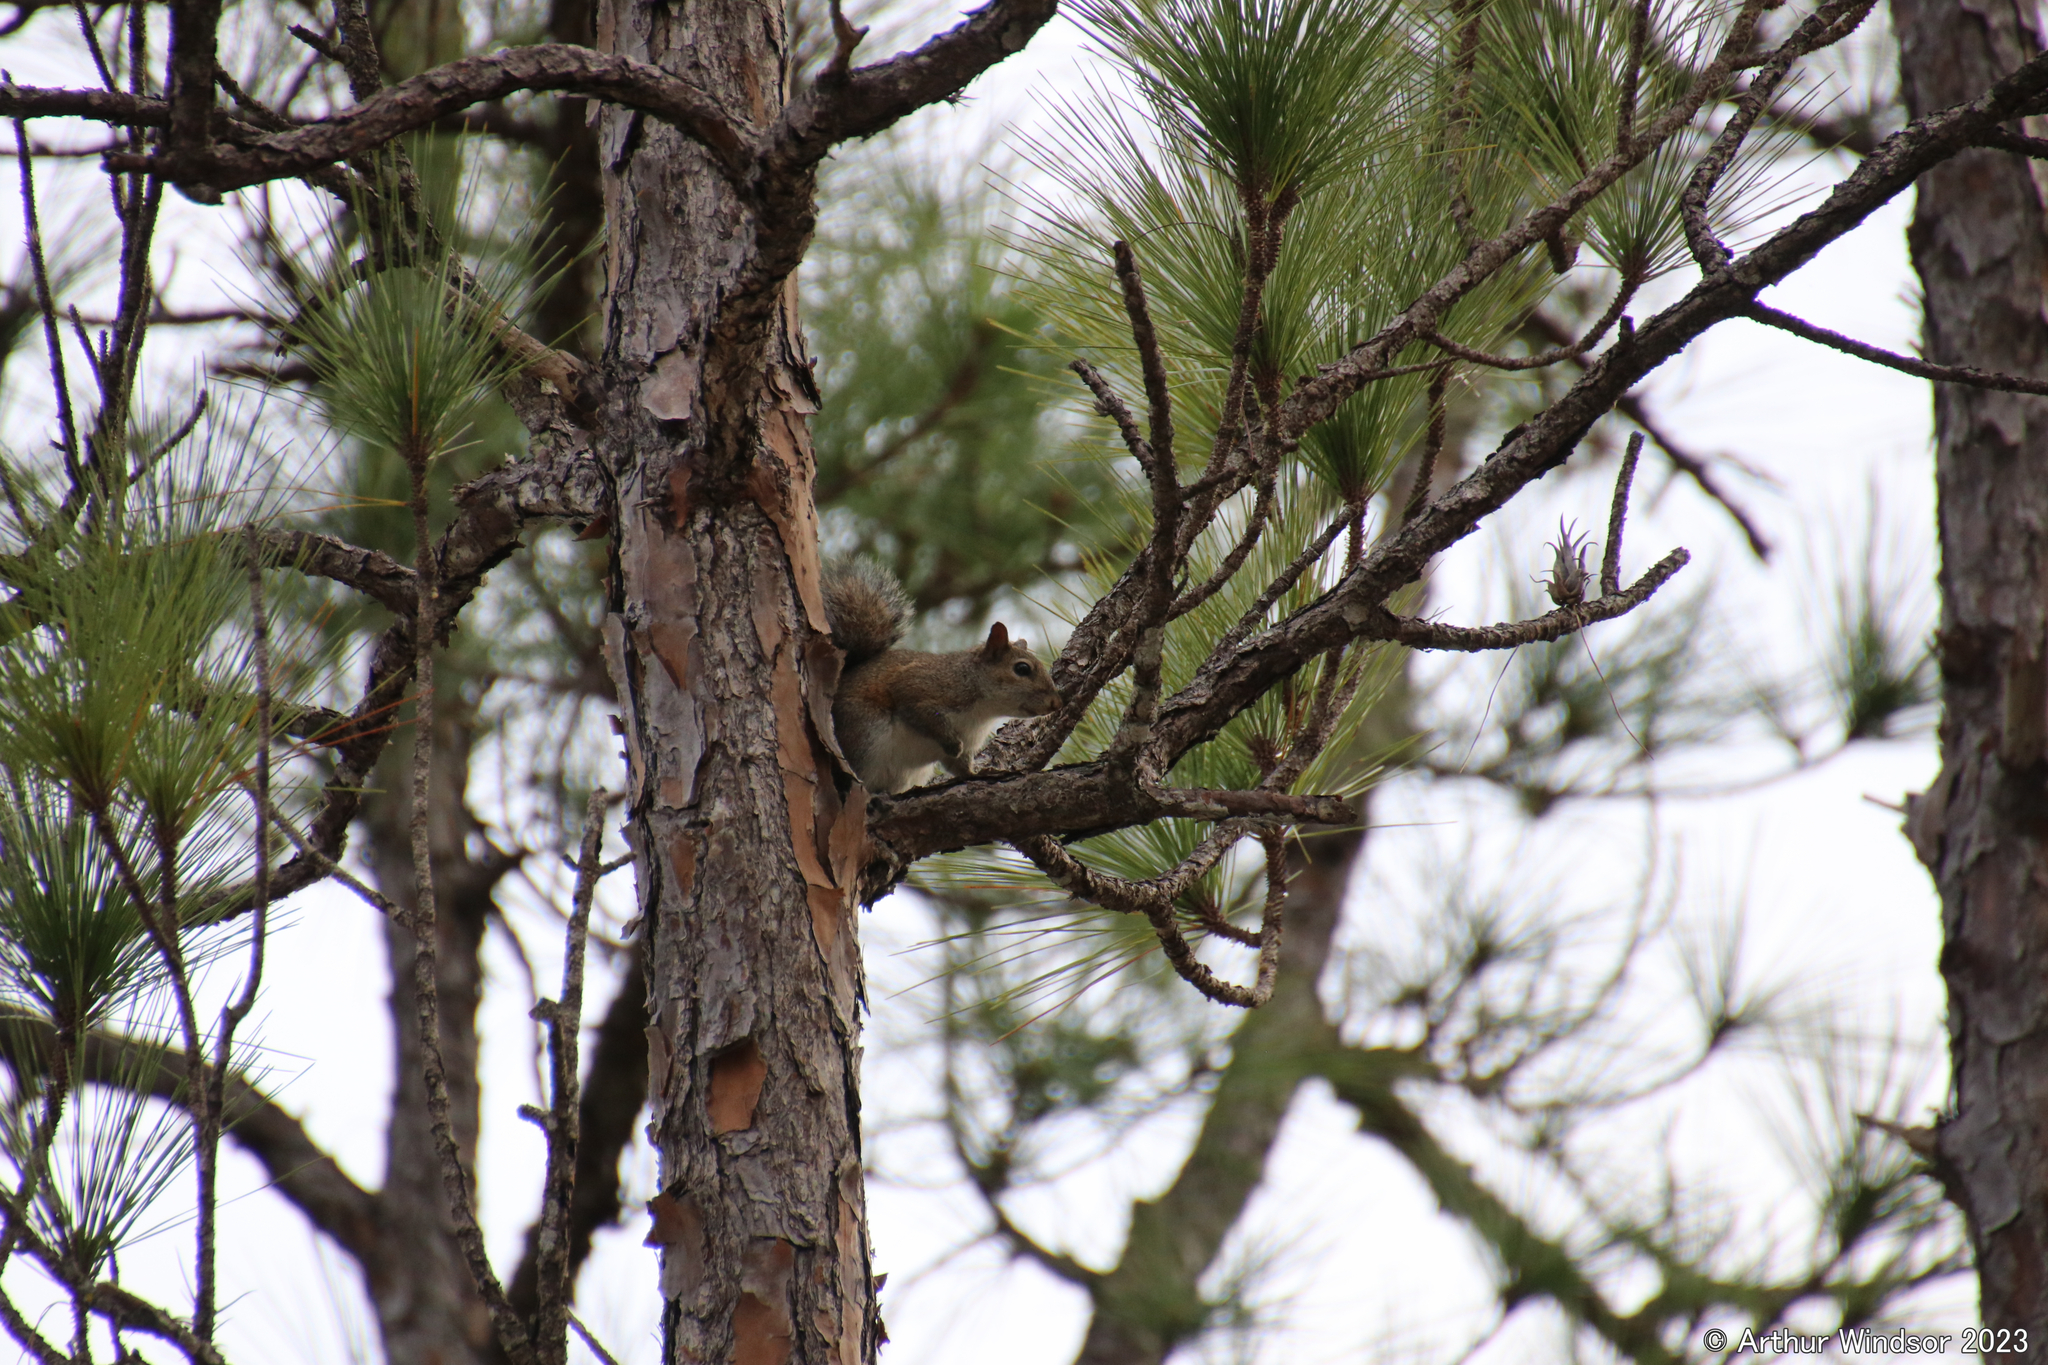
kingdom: Animalia
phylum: Chordata
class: Mammalia
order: Rodentia
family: Sciuridae
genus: Sciurus
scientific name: Sciurus carolinensis
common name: Eastern gray squirrel
